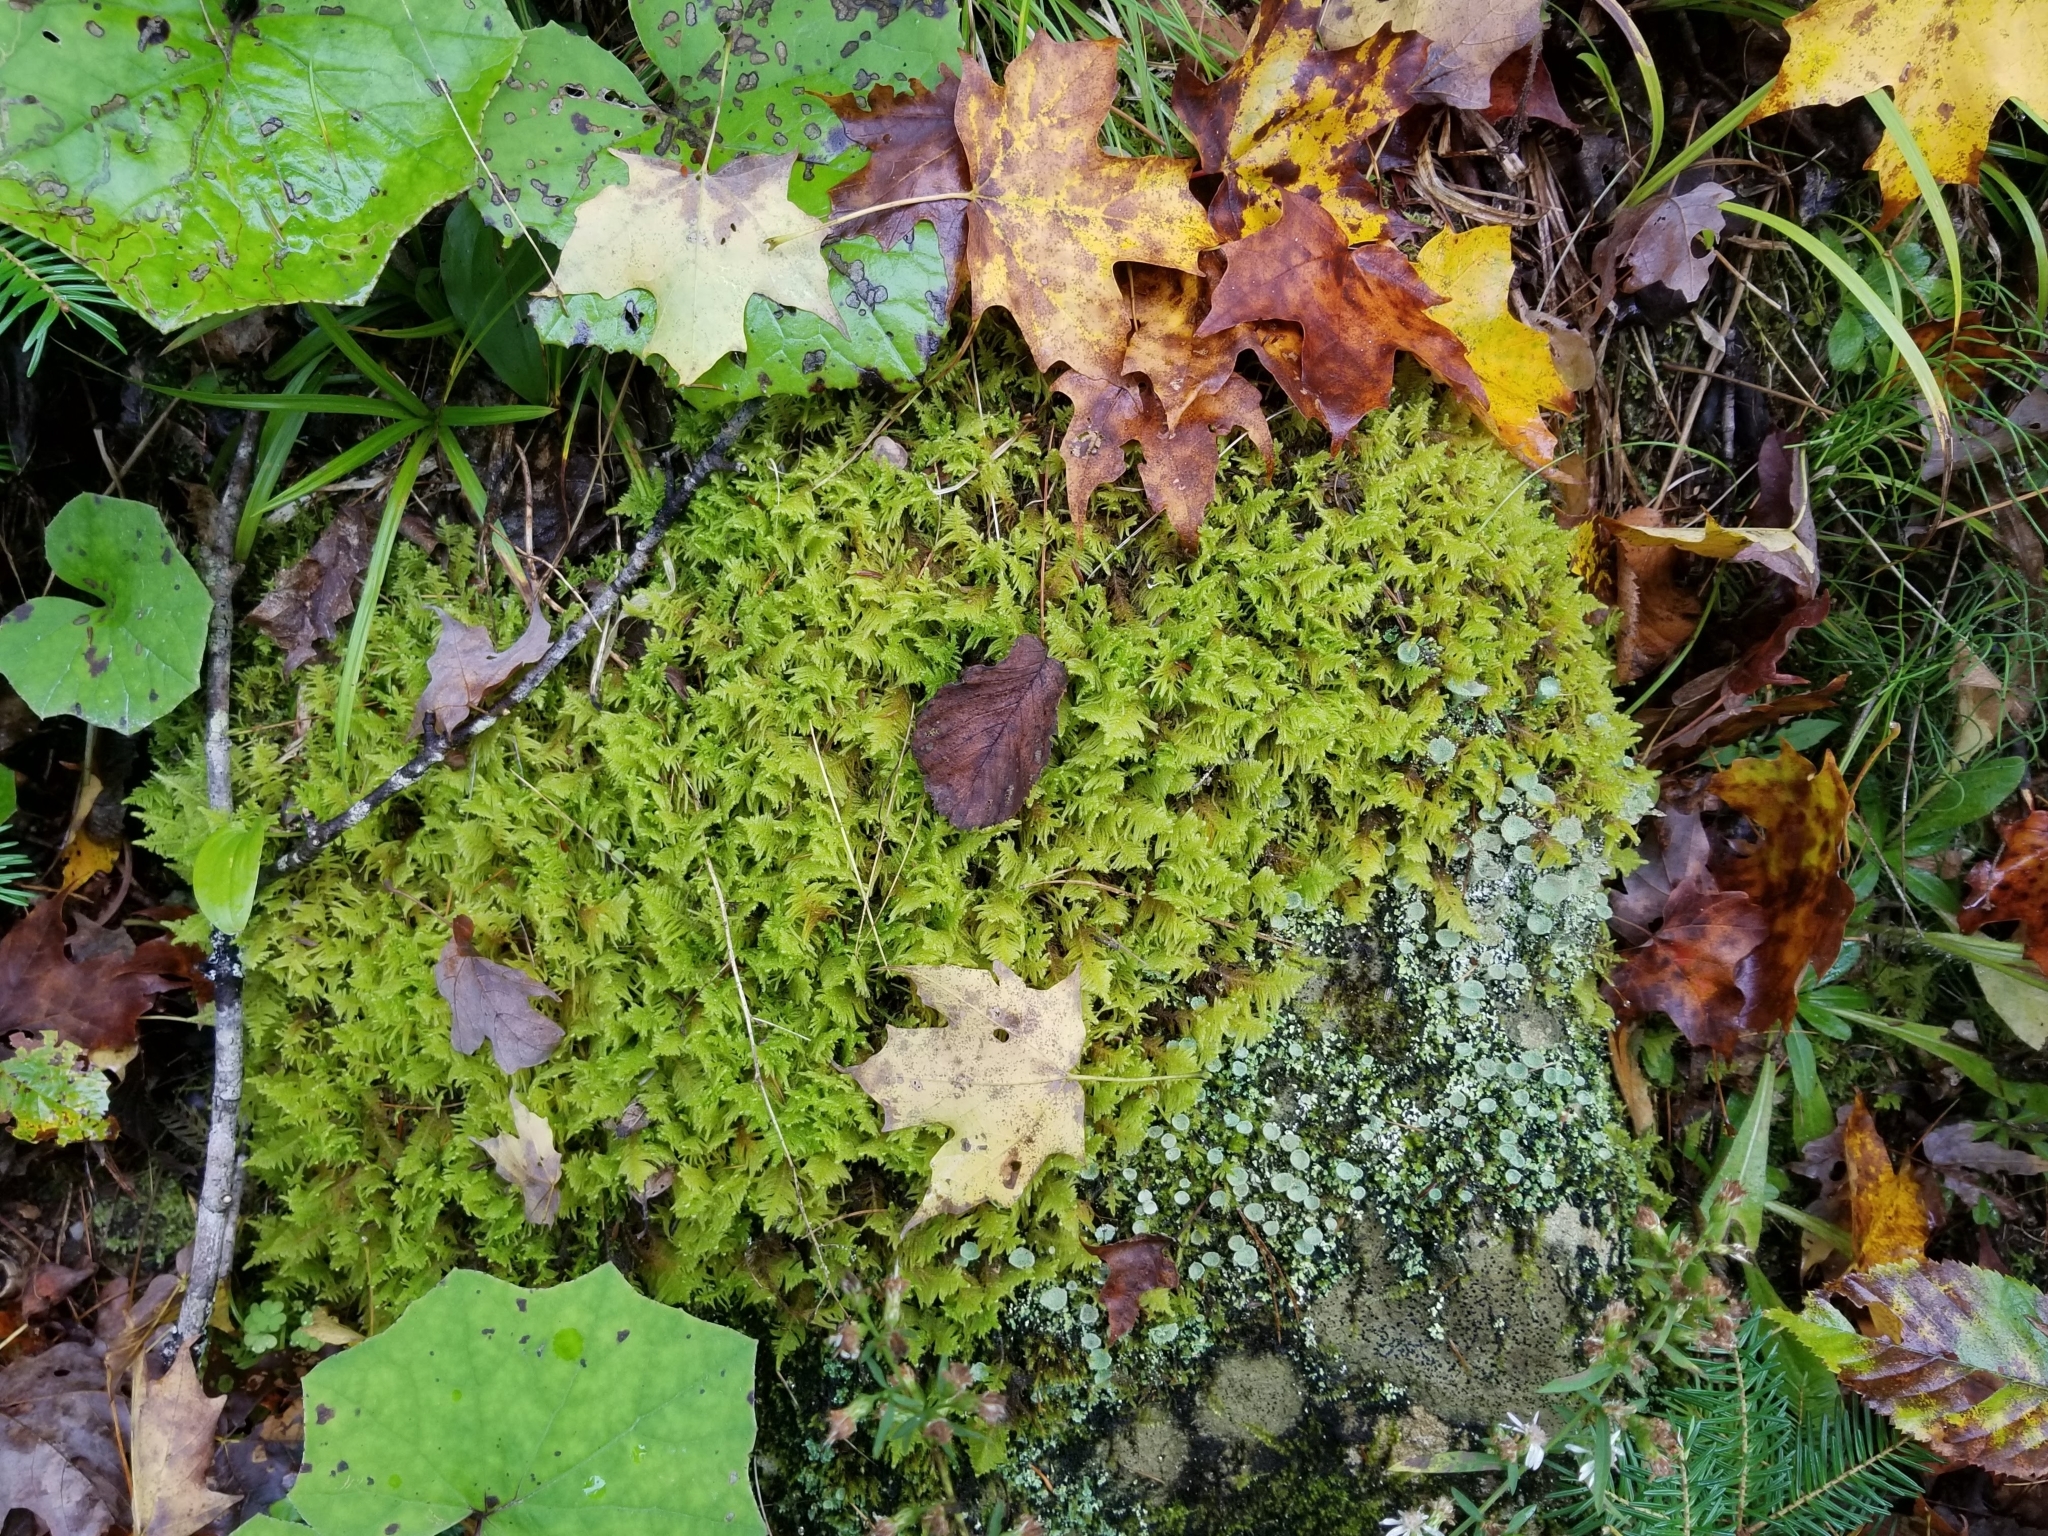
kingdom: Plantae
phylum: Bryophyta
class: Bryopsida
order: Hypnales
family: Pylaisiaceae
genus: Ptilium
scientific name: Ptilium crista-castrensis
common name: Knight's plume moss
